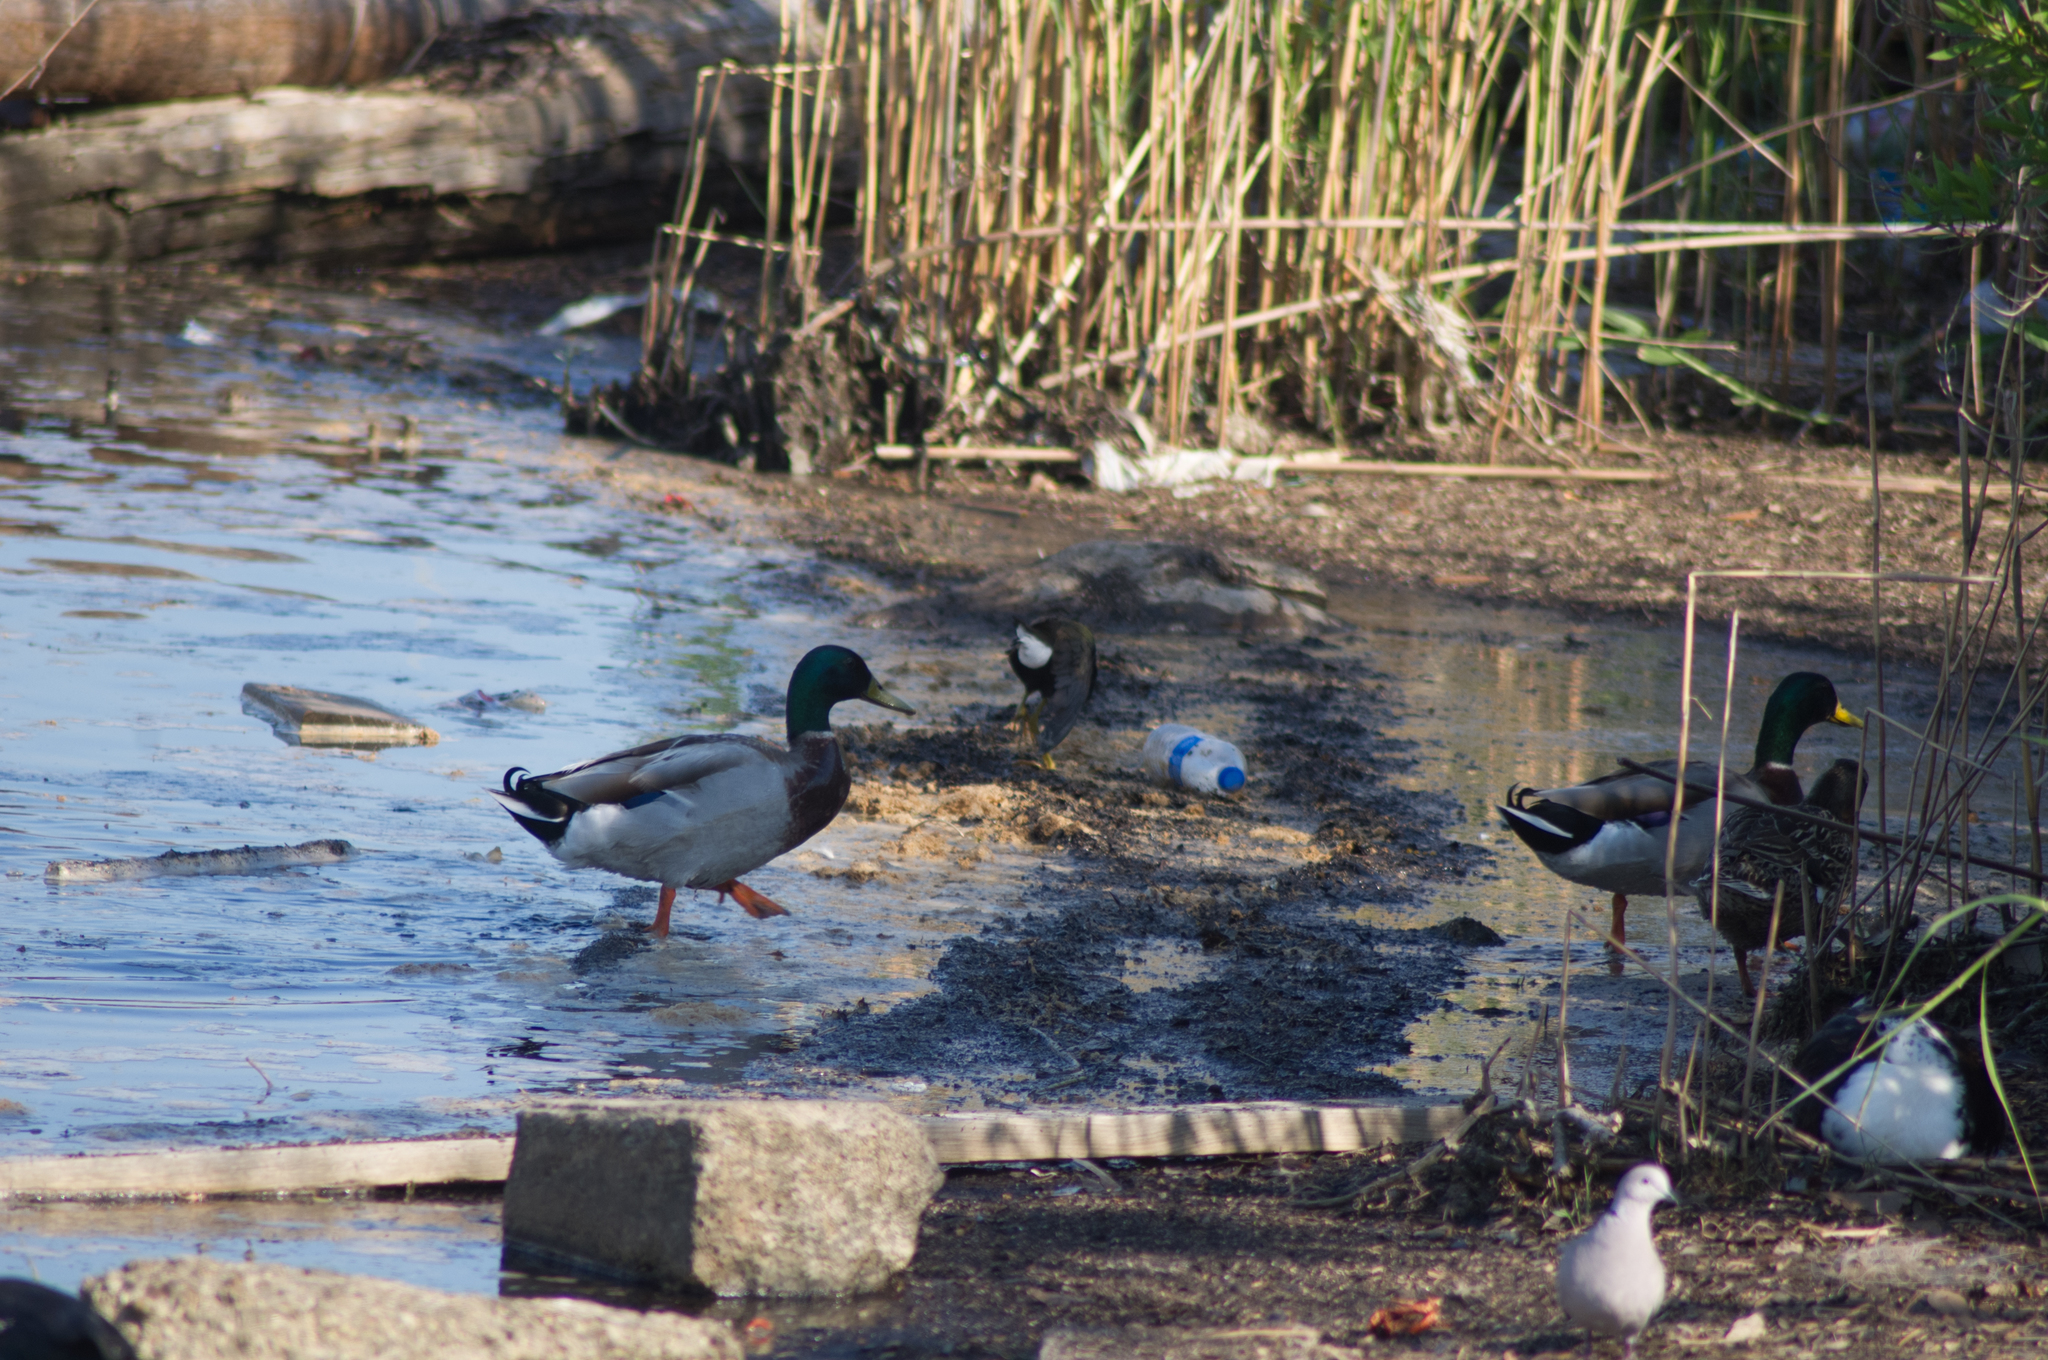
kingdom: Animalia
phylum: Chordata
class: Aves
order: Anseriformes
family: Anatidae
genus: Anas
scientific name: Anas platyrhynchos
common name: Mallard
